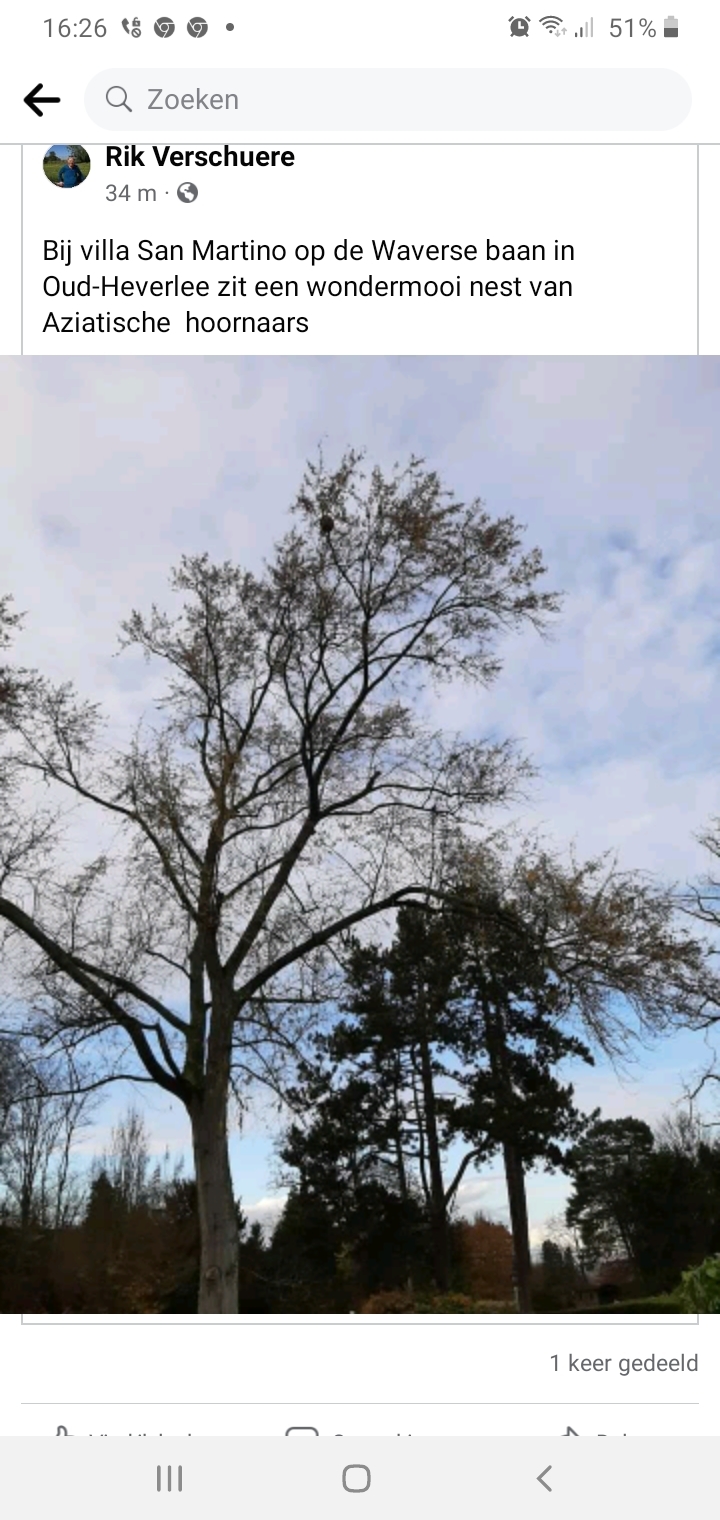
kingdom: Animalia
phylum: Arthropoda
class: Insecta
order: Hymenoptera
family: Vespidae
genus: Vespa
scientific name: Vespa velutina
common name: Asian hornet
